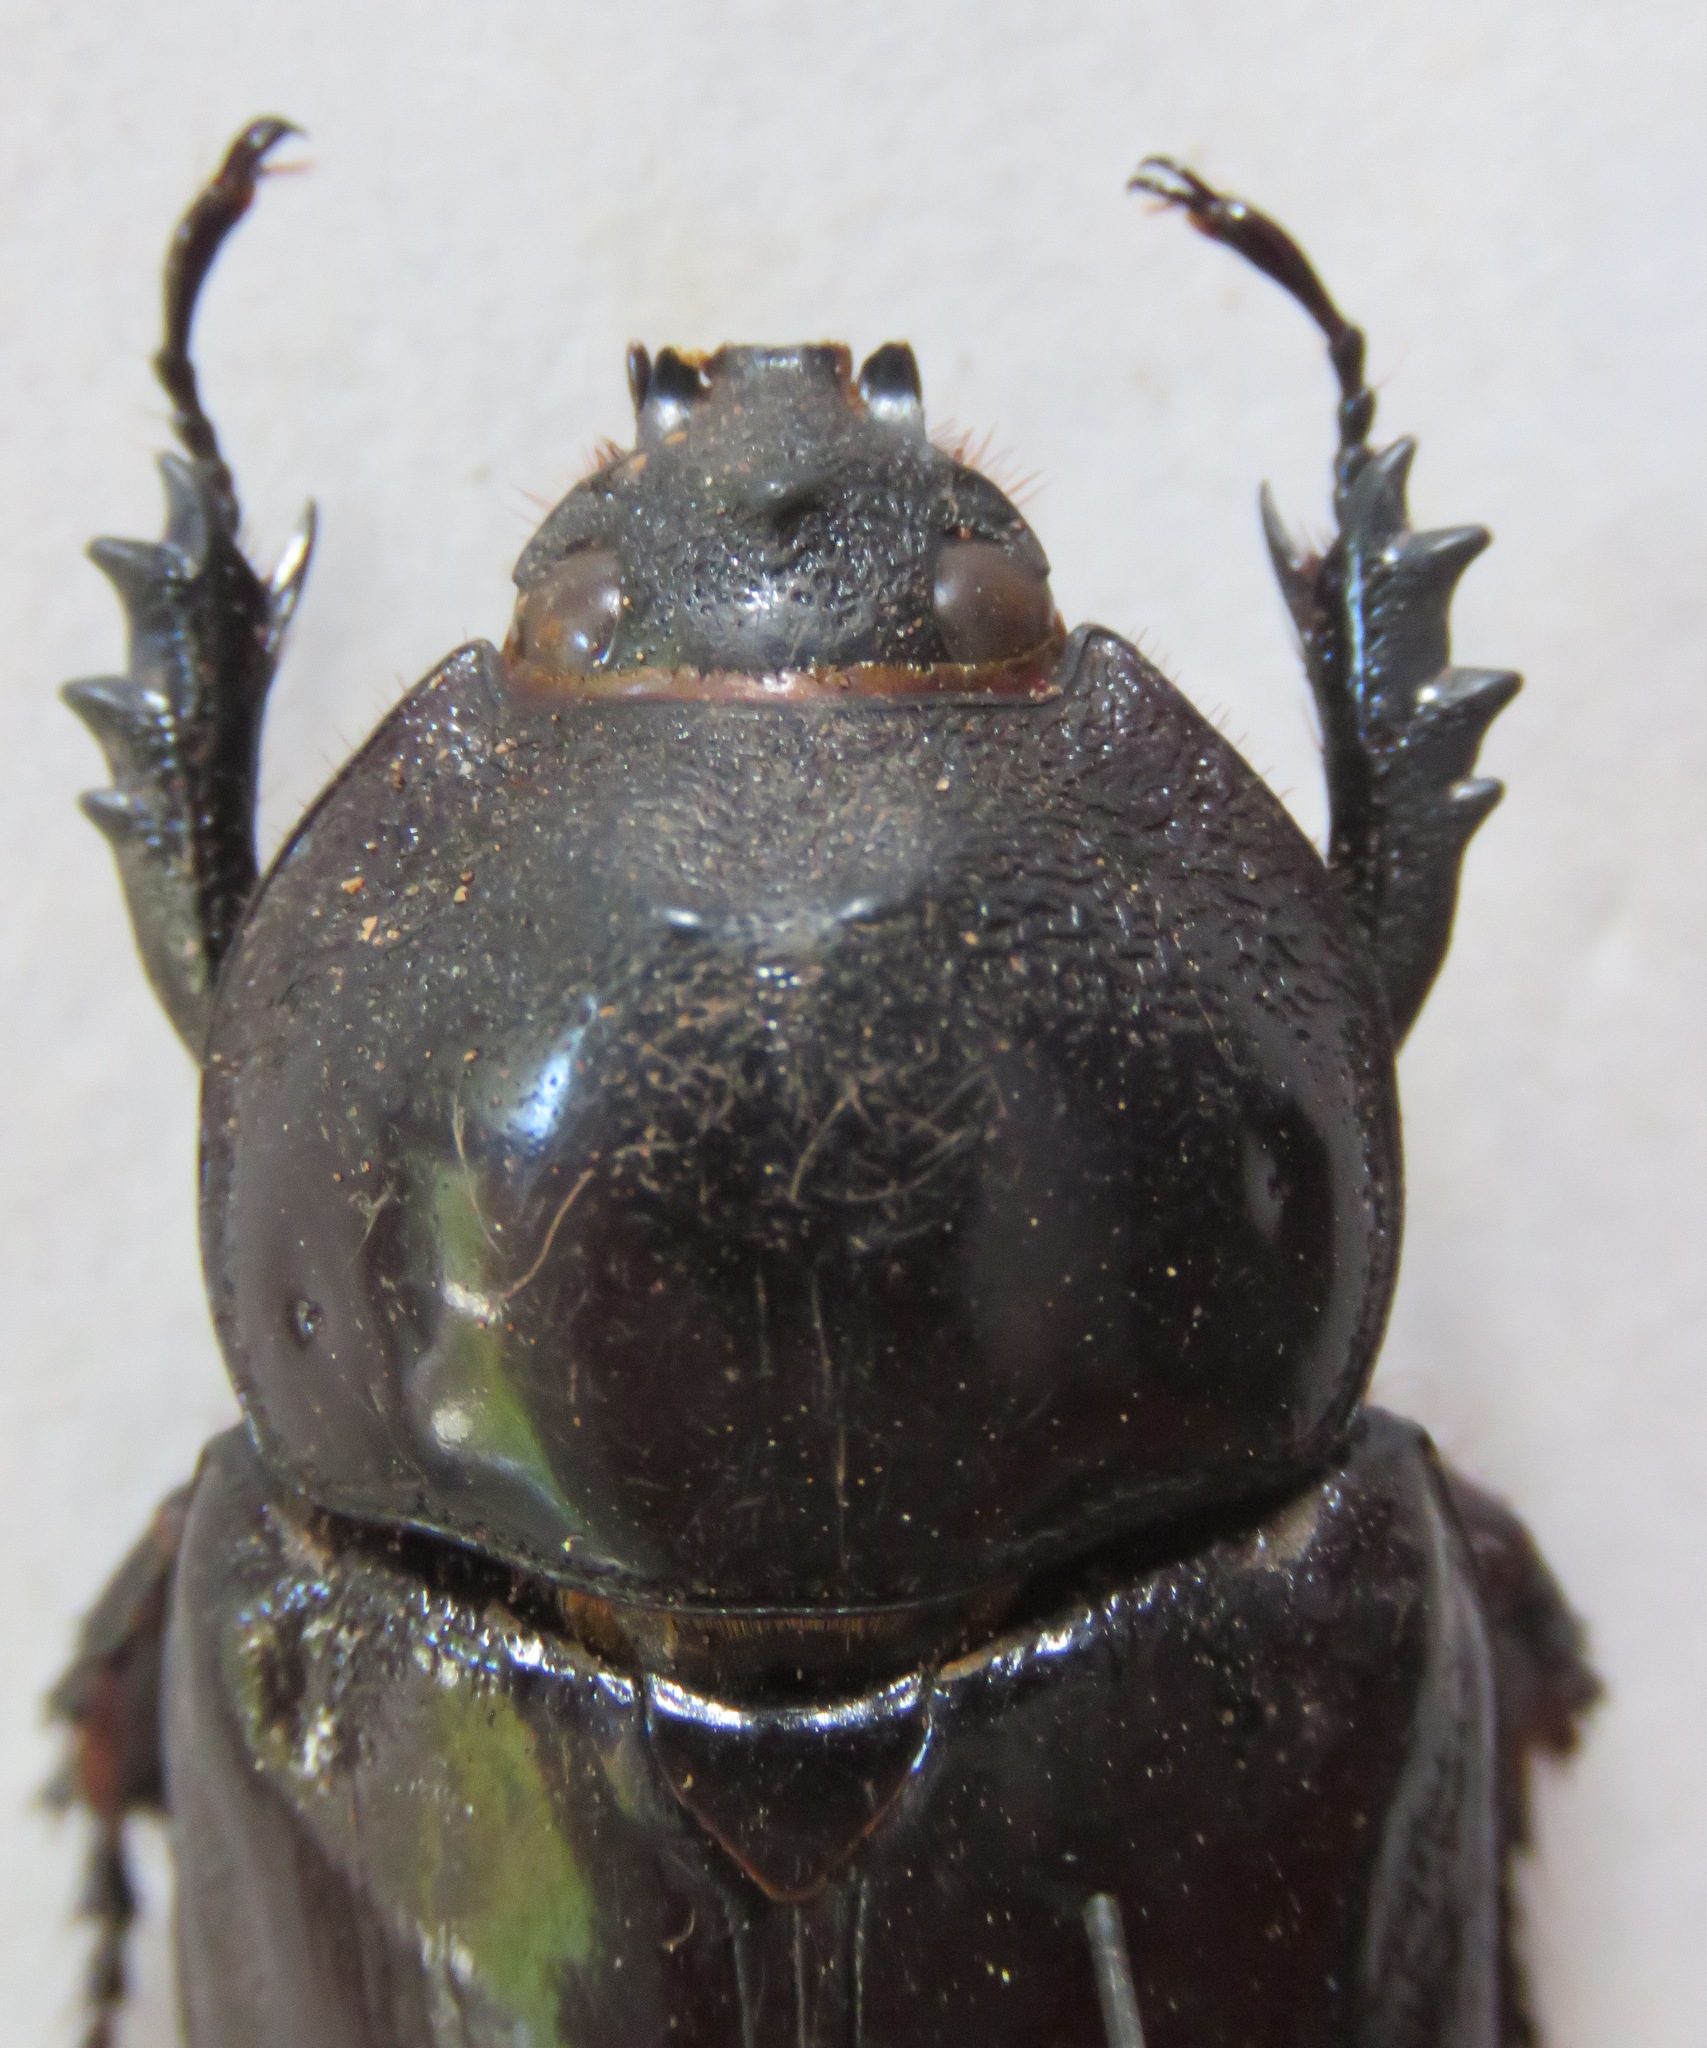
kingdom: Animalia
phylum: Arthropoda
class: Insecta
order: Coleoptera
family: Scarabaeidae
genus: Xylotrupes
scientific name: Xylotrupes gideon
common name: Elephant beetle
